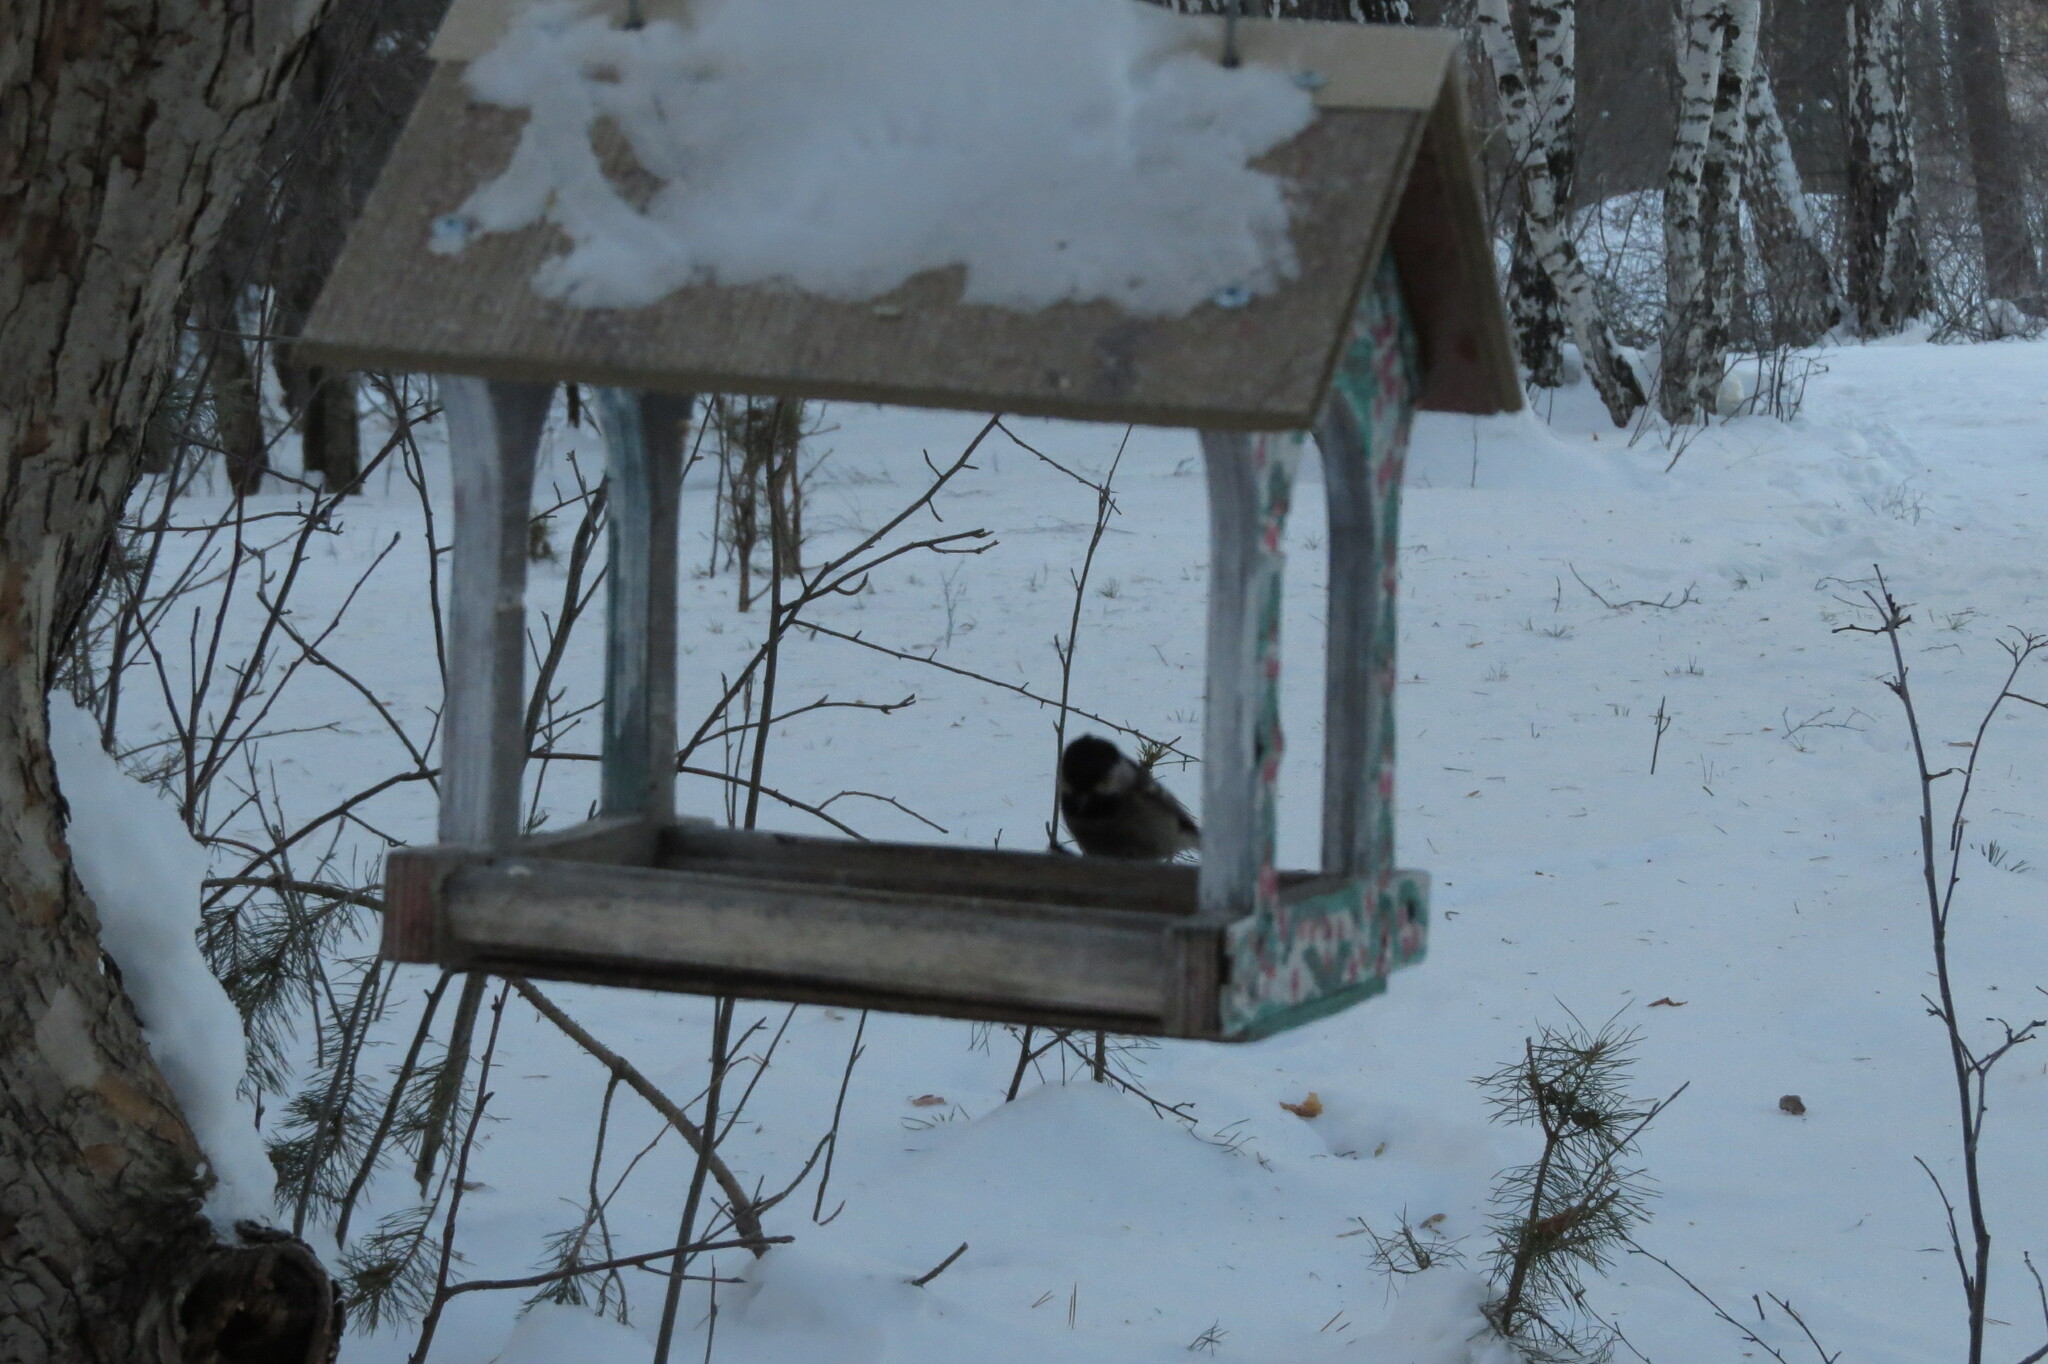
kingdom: Animalia
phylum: Chordata
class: Aves
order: Passeriformes
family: Paridae
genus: Periparus
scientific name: Periparus ater
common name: Coal tit
